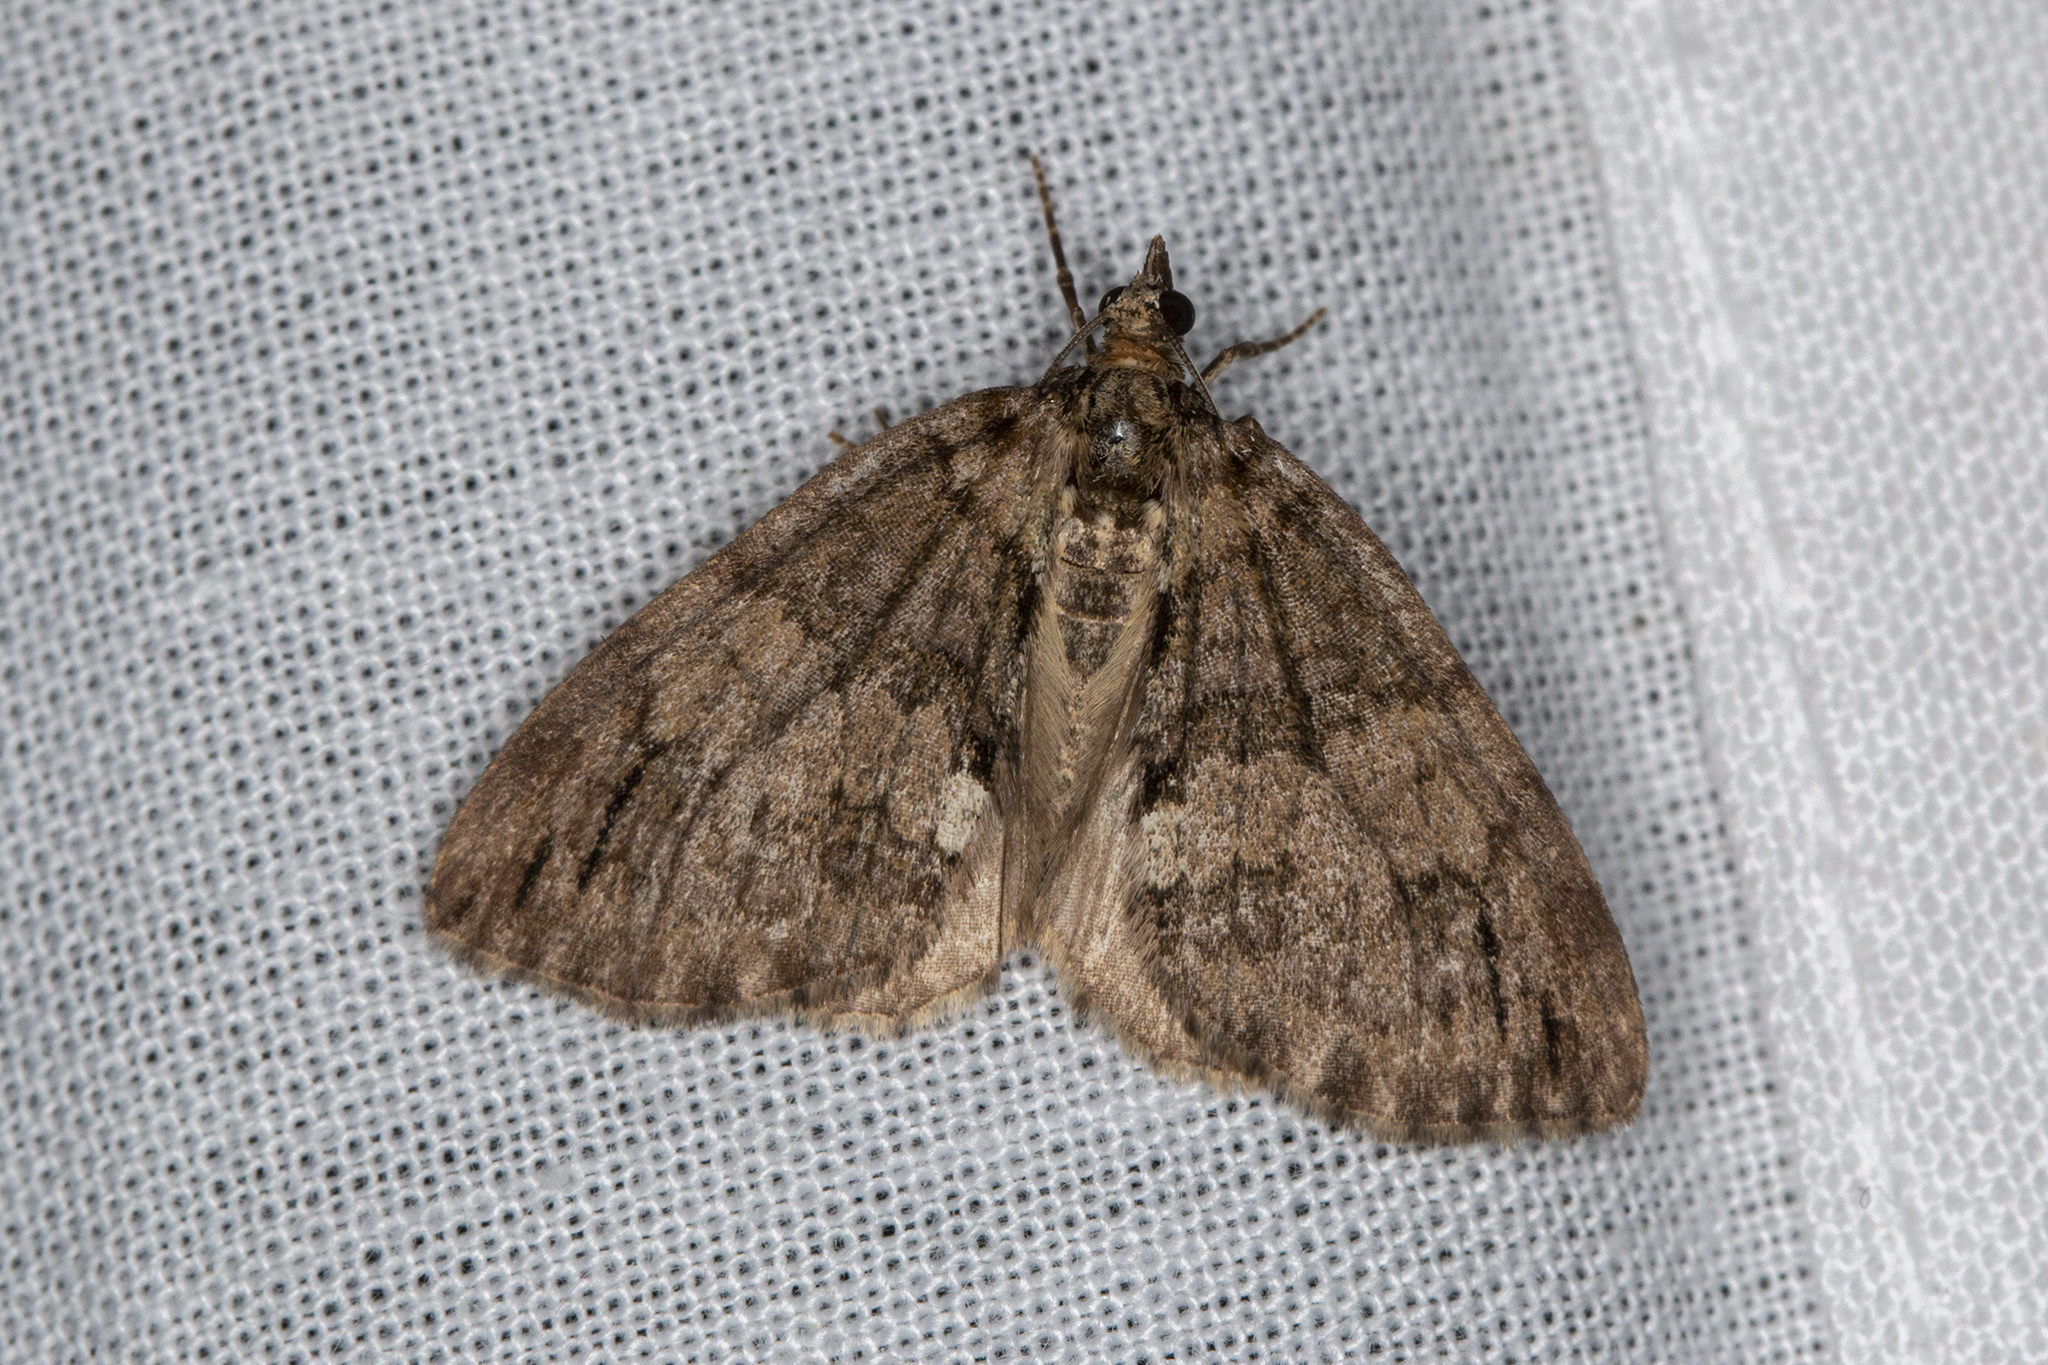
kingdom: Animalia
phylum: Arthropoda
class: Insecta
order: Lepidoptera
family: Geometridae
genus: Hydriomena
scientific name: Hydriomena impluviata
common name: May highflyer
